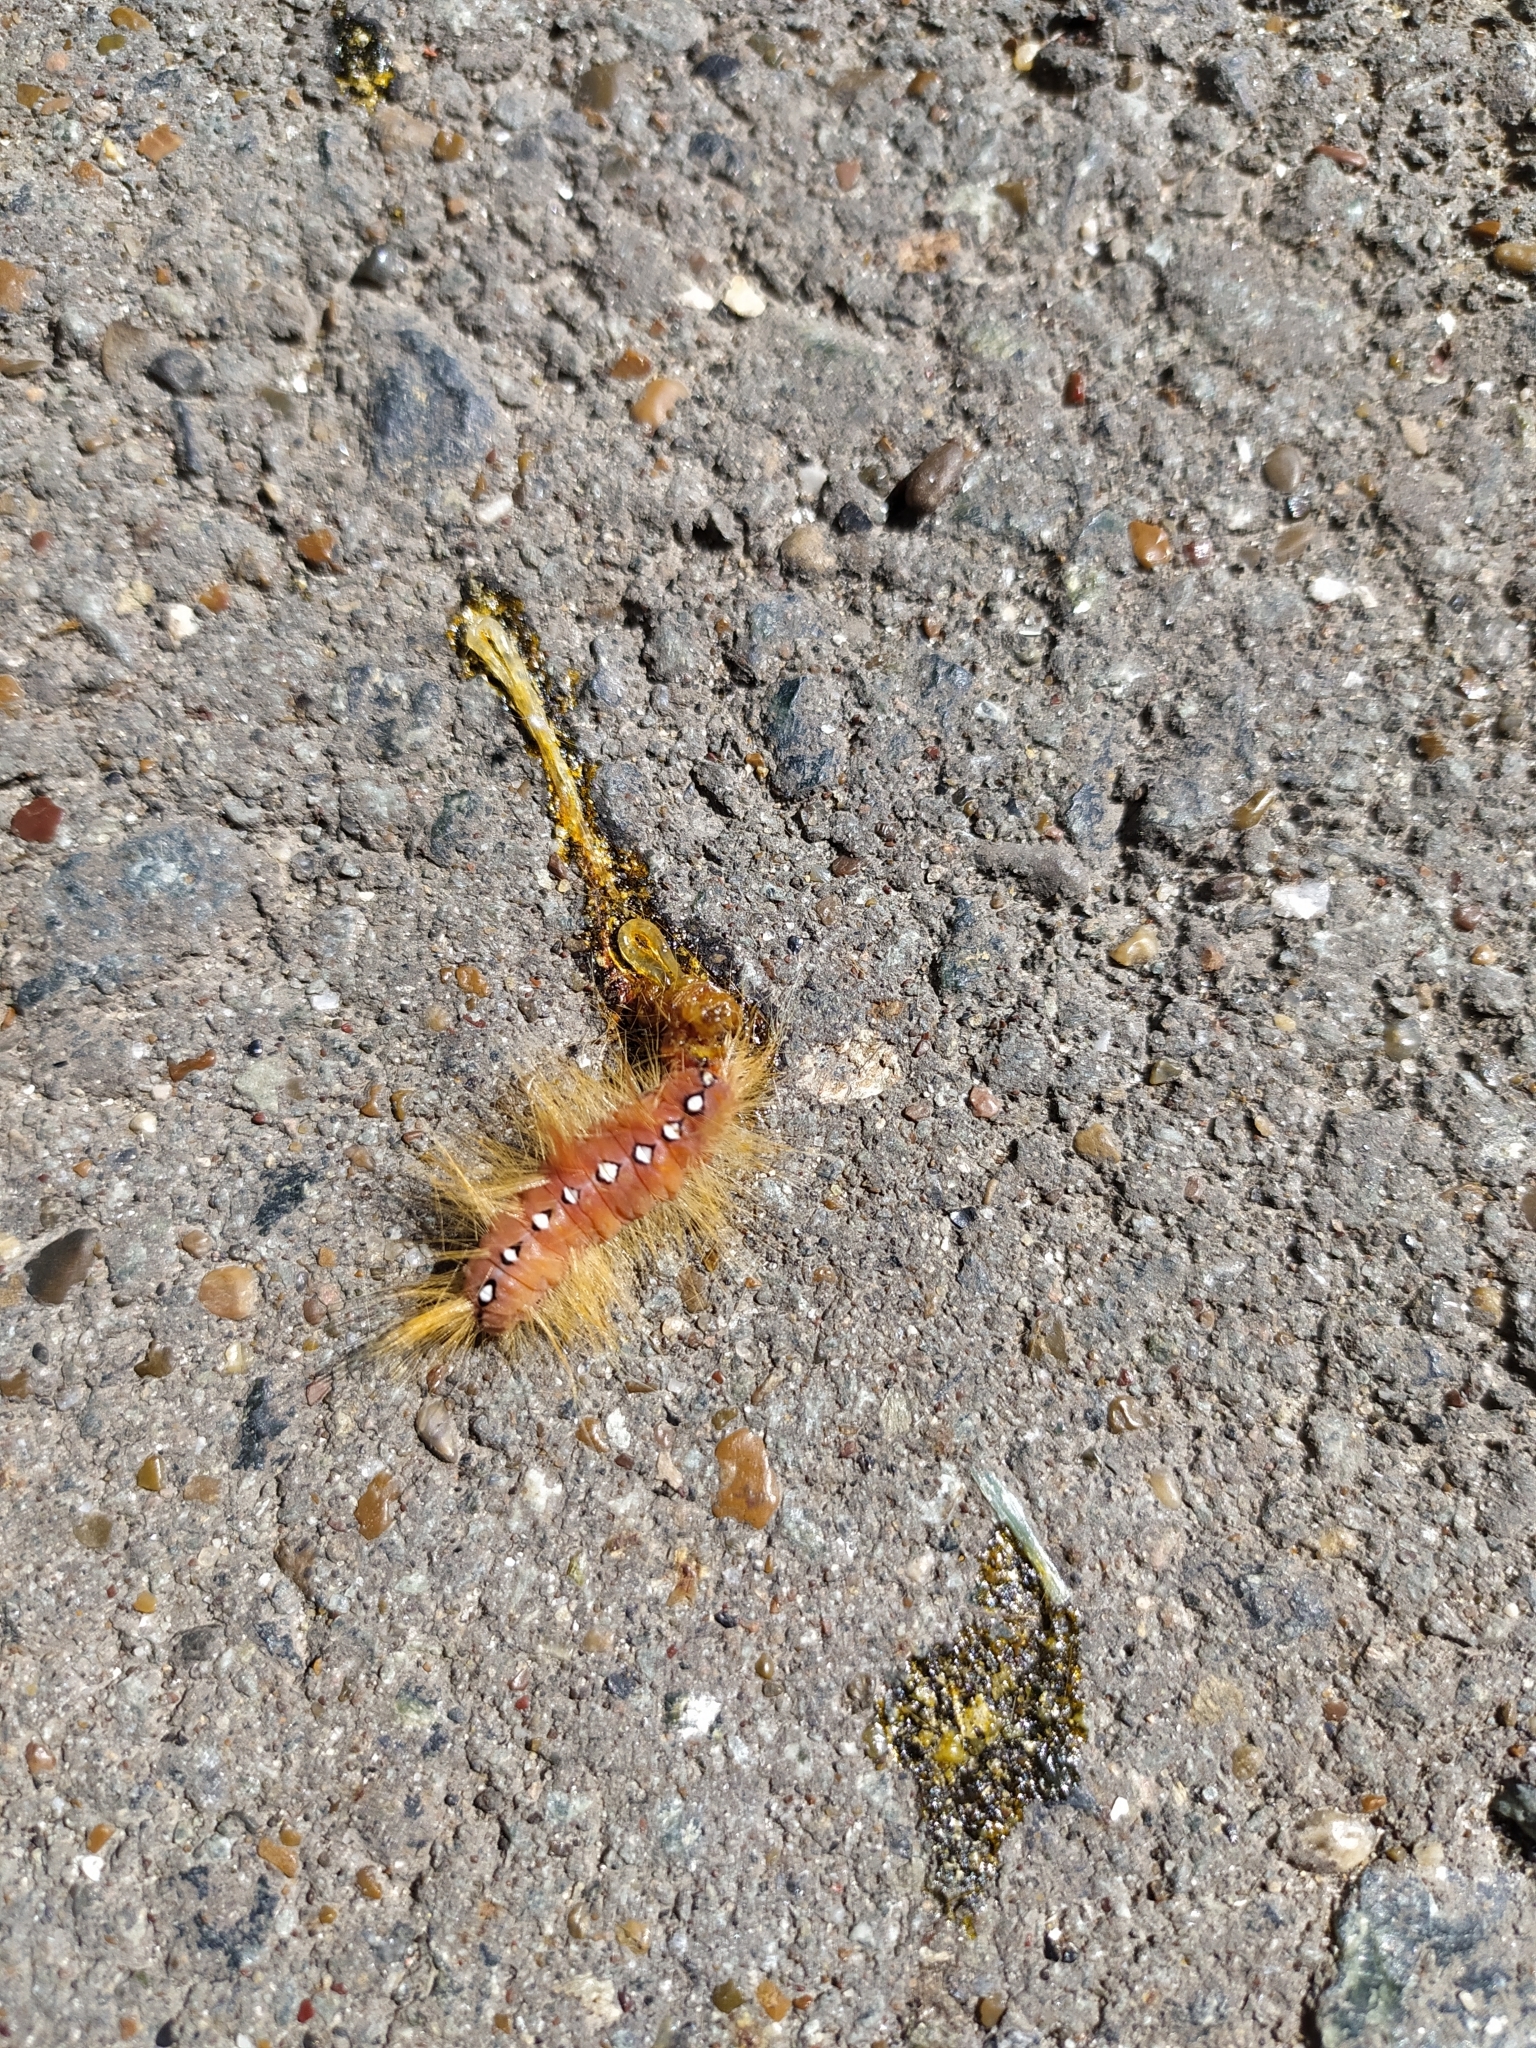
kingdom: Animalia
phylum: Arthropoda
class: Insecta
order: Lepidoptera
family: Noctuidae
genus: Acronicta
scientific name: Acronicta aceris
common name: Sycamore
